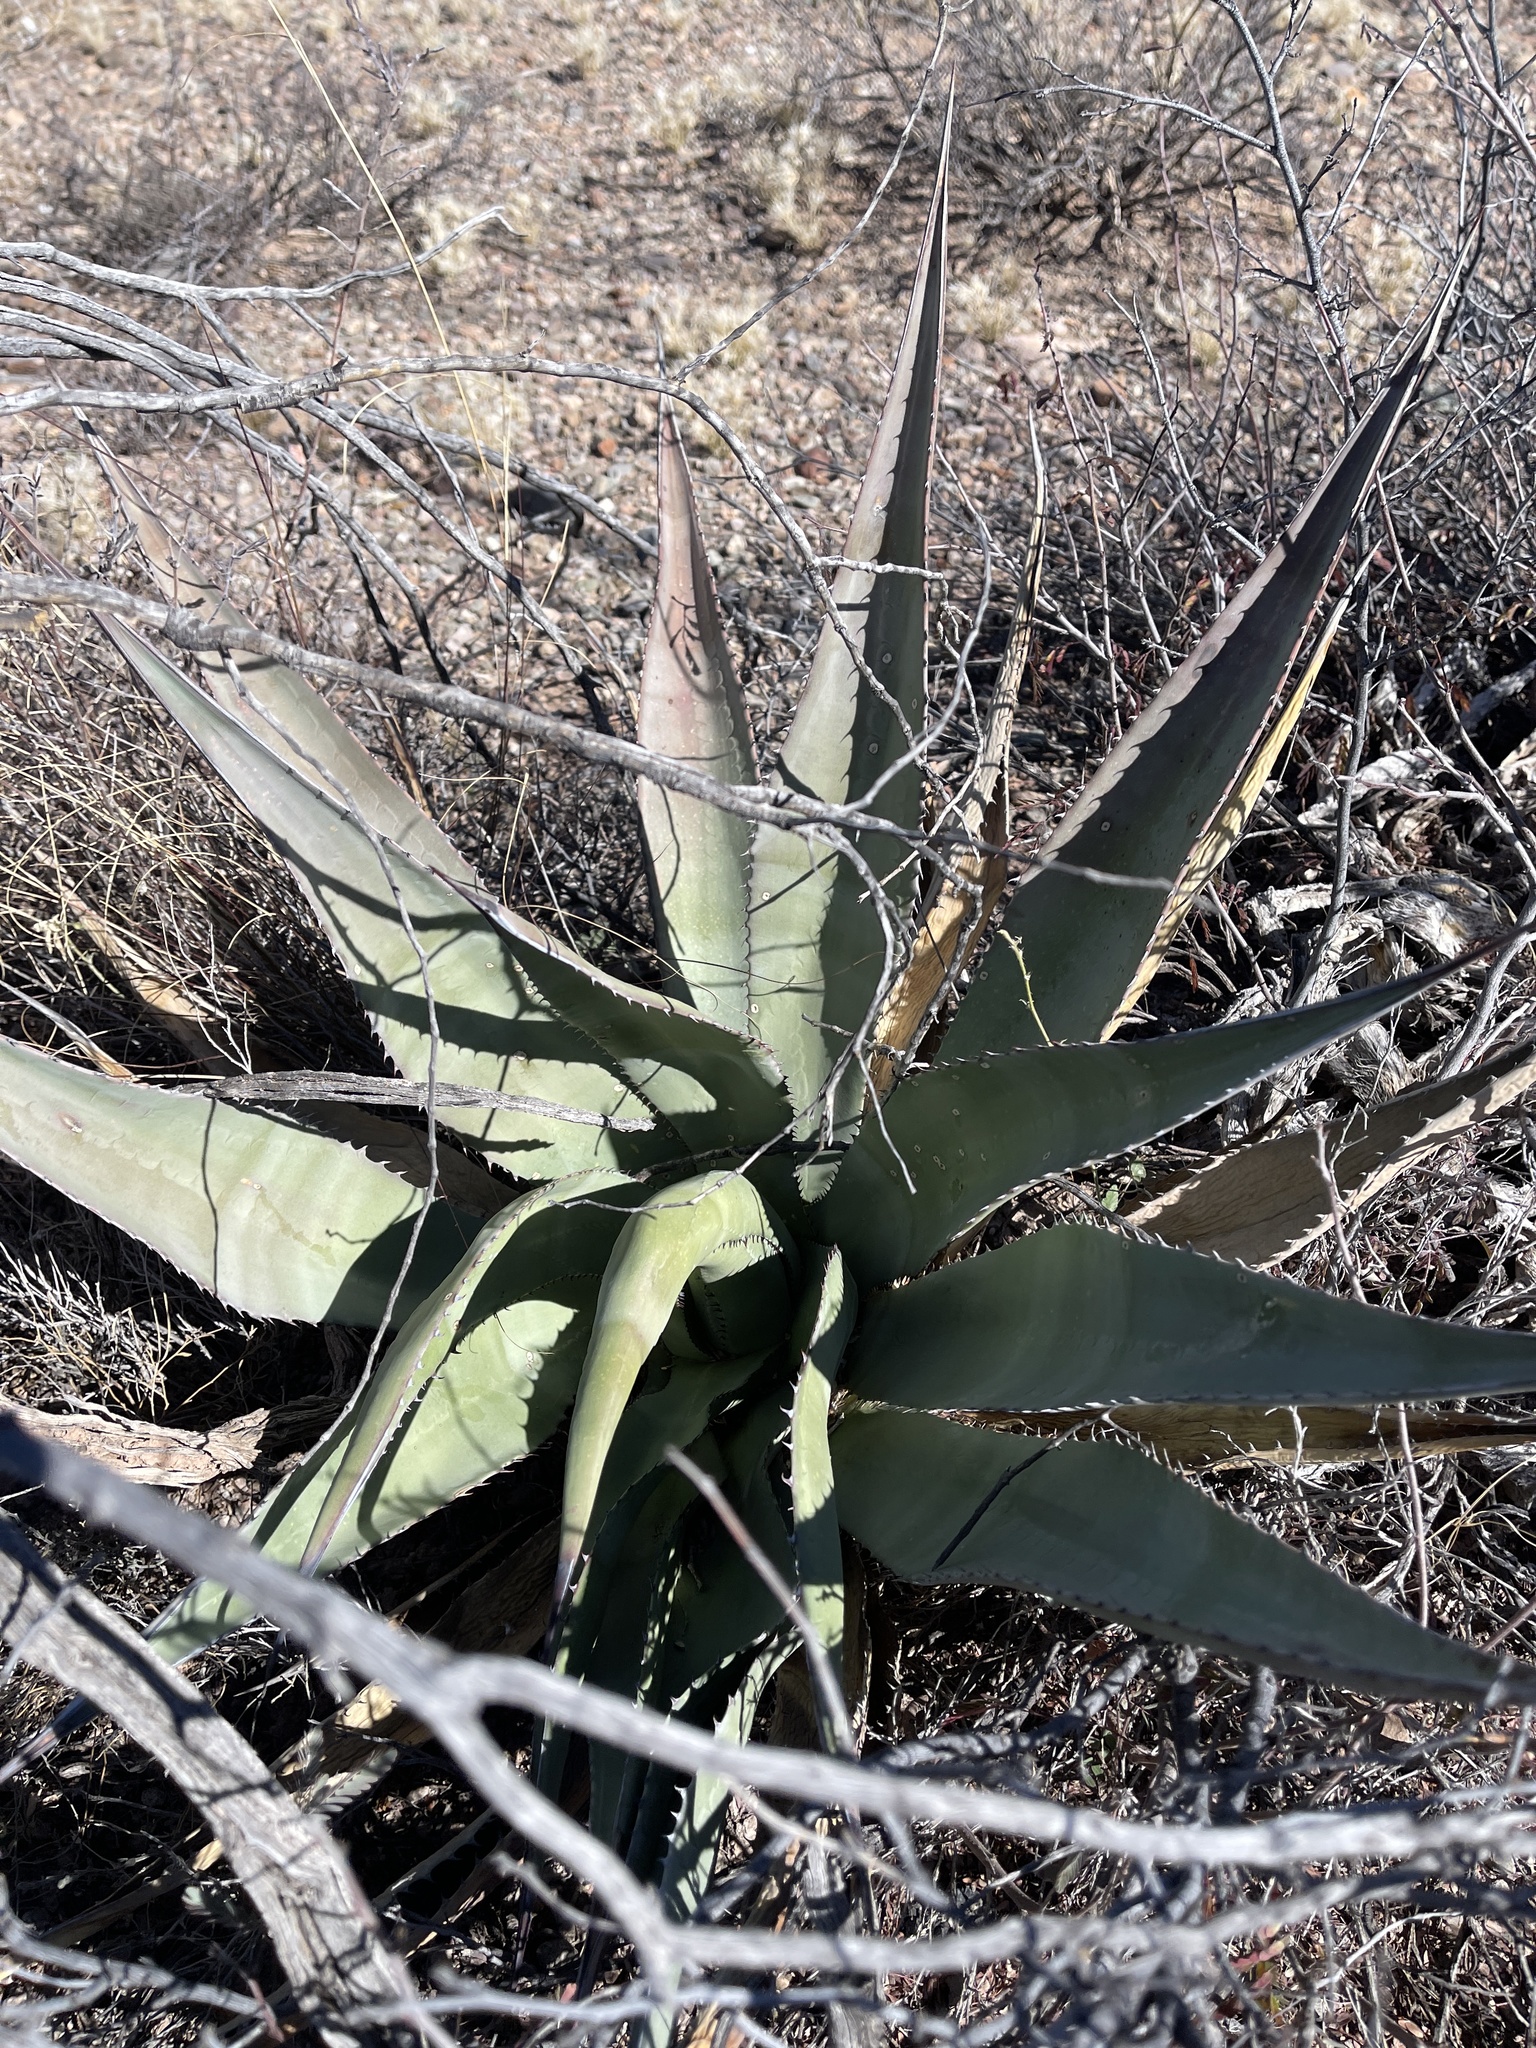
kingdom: Plantae
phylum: Tracheophyta
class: Liliopsida
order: Asparagales
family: Asparagaceae
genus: Agave
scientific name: Agave palmeri
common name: Palmer agave
